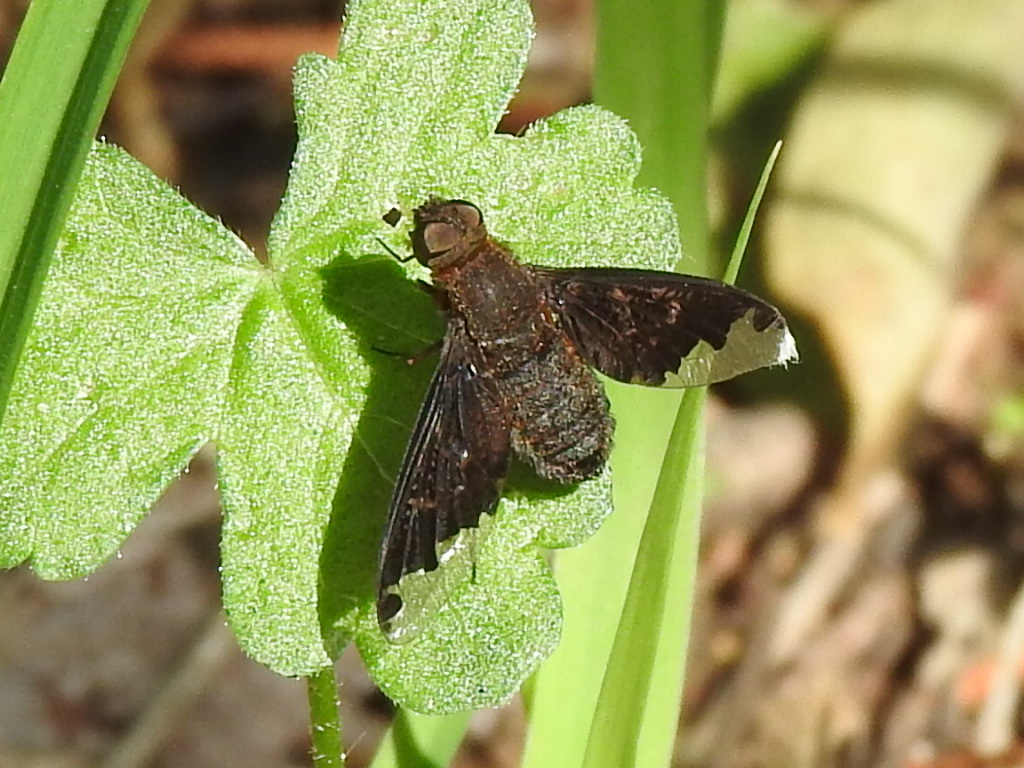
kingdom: Animalia
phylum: Arthropoda
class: Insecta
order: Diptera
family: Bombyliidae
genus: Hemipenthes
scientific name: Hemipenthes sinuosus
